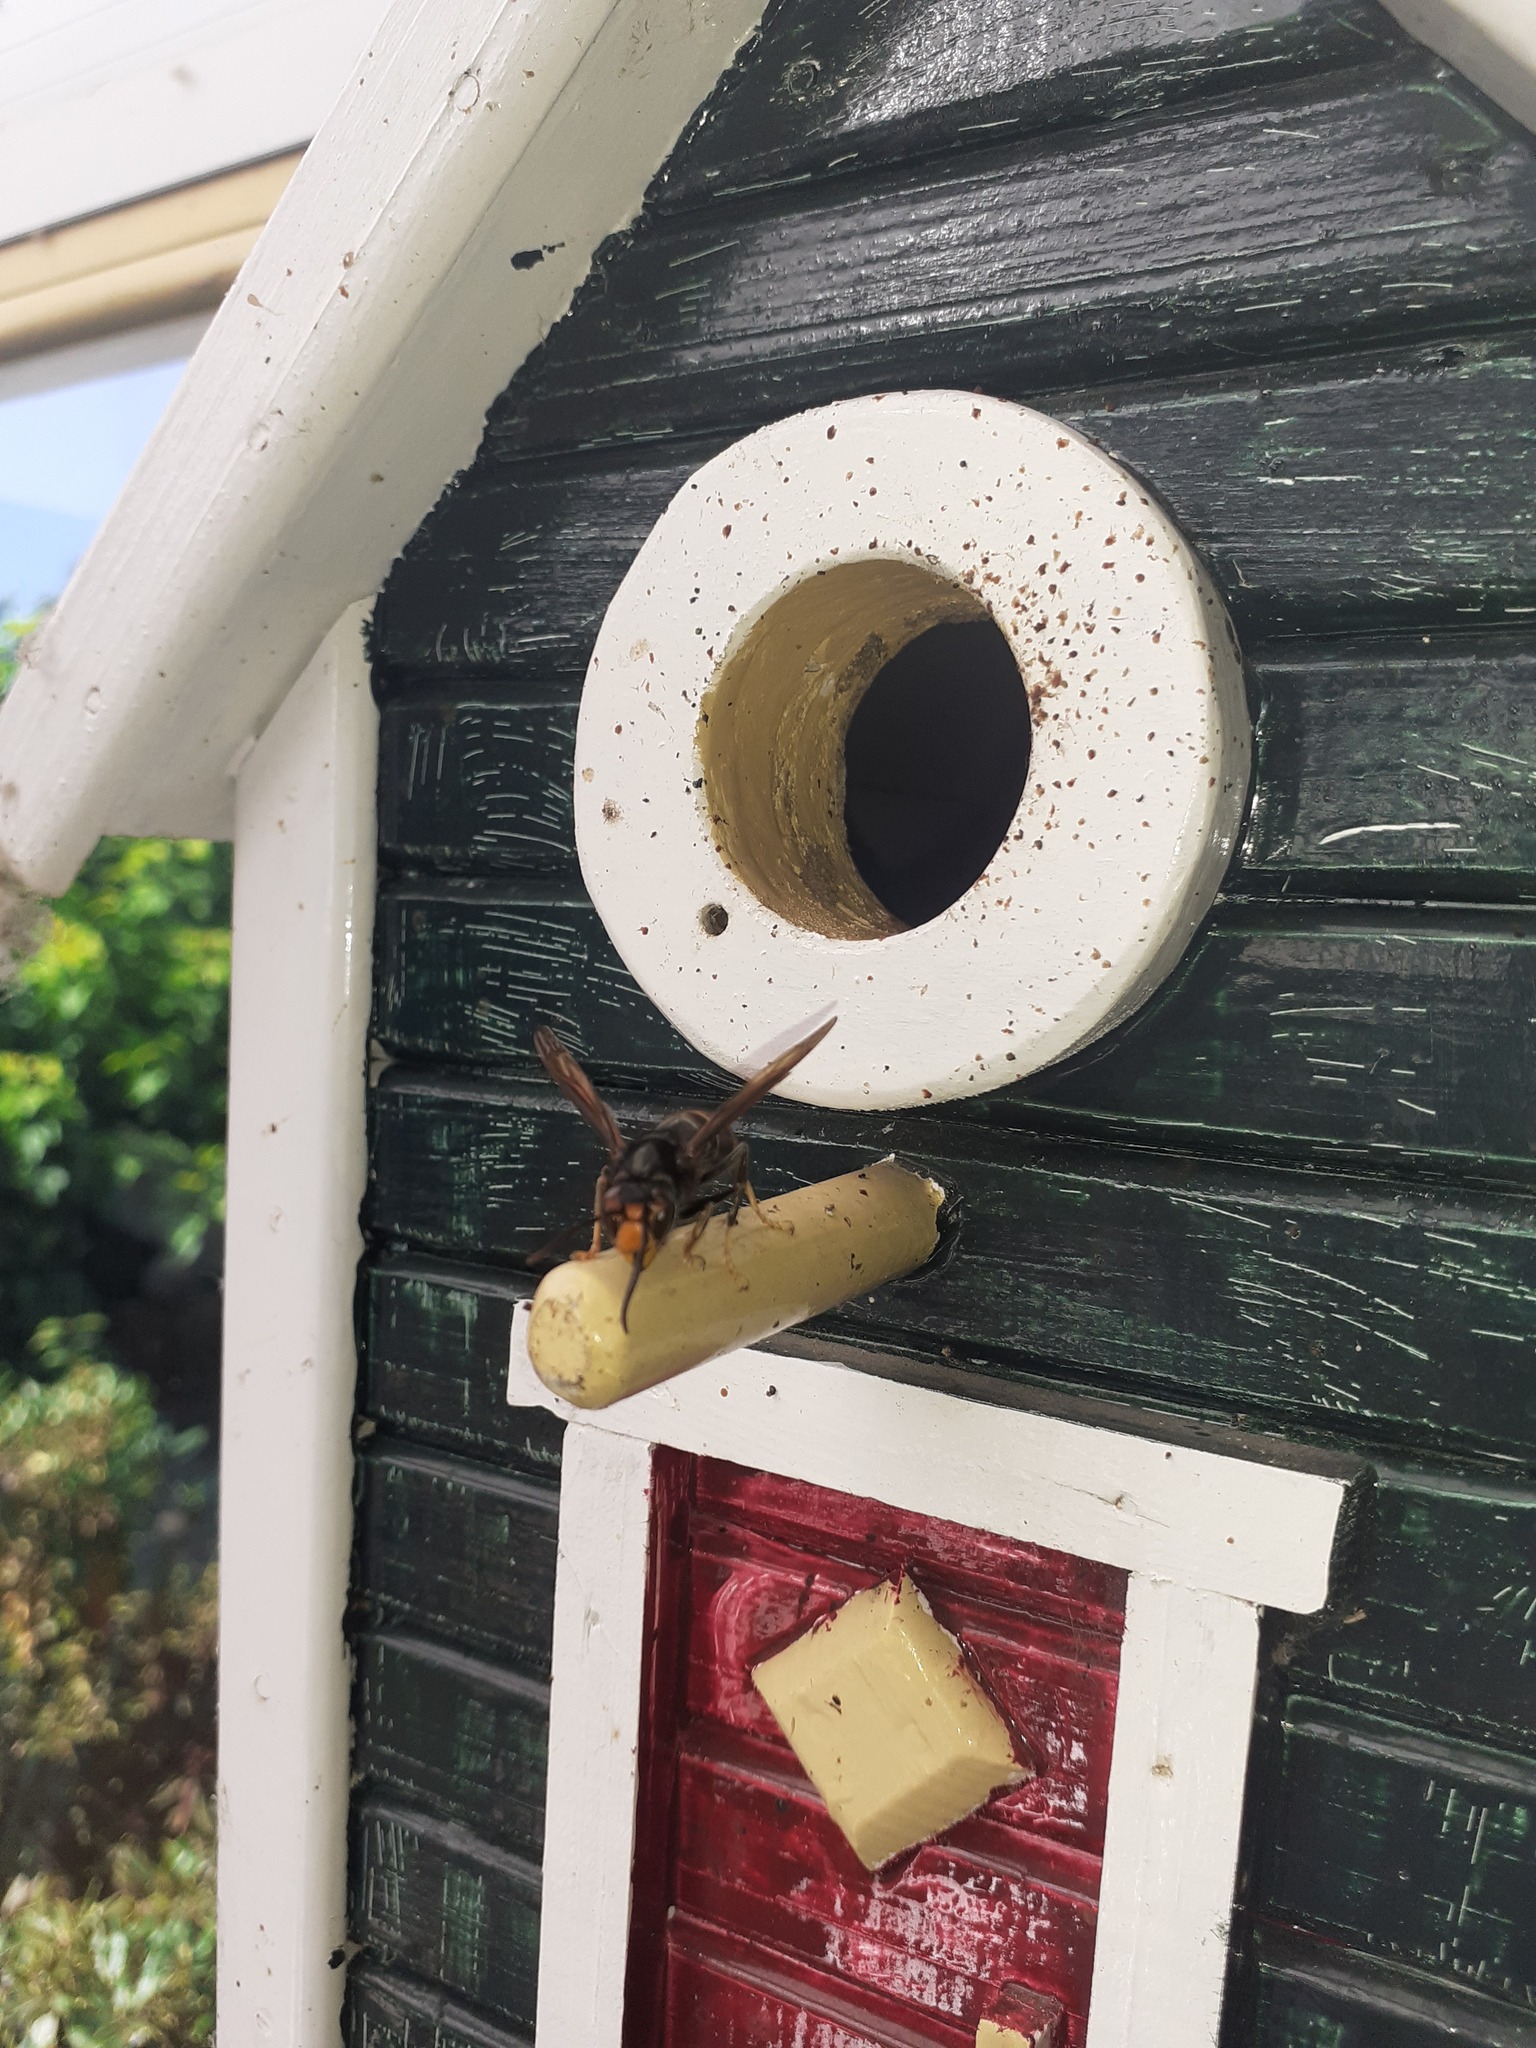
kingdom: Animalia
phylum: Arthropoda
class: Insecta
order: Hymenoptera
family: Vespidae
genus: Vespa
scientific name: Vespa velutina
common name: Asian hornet
